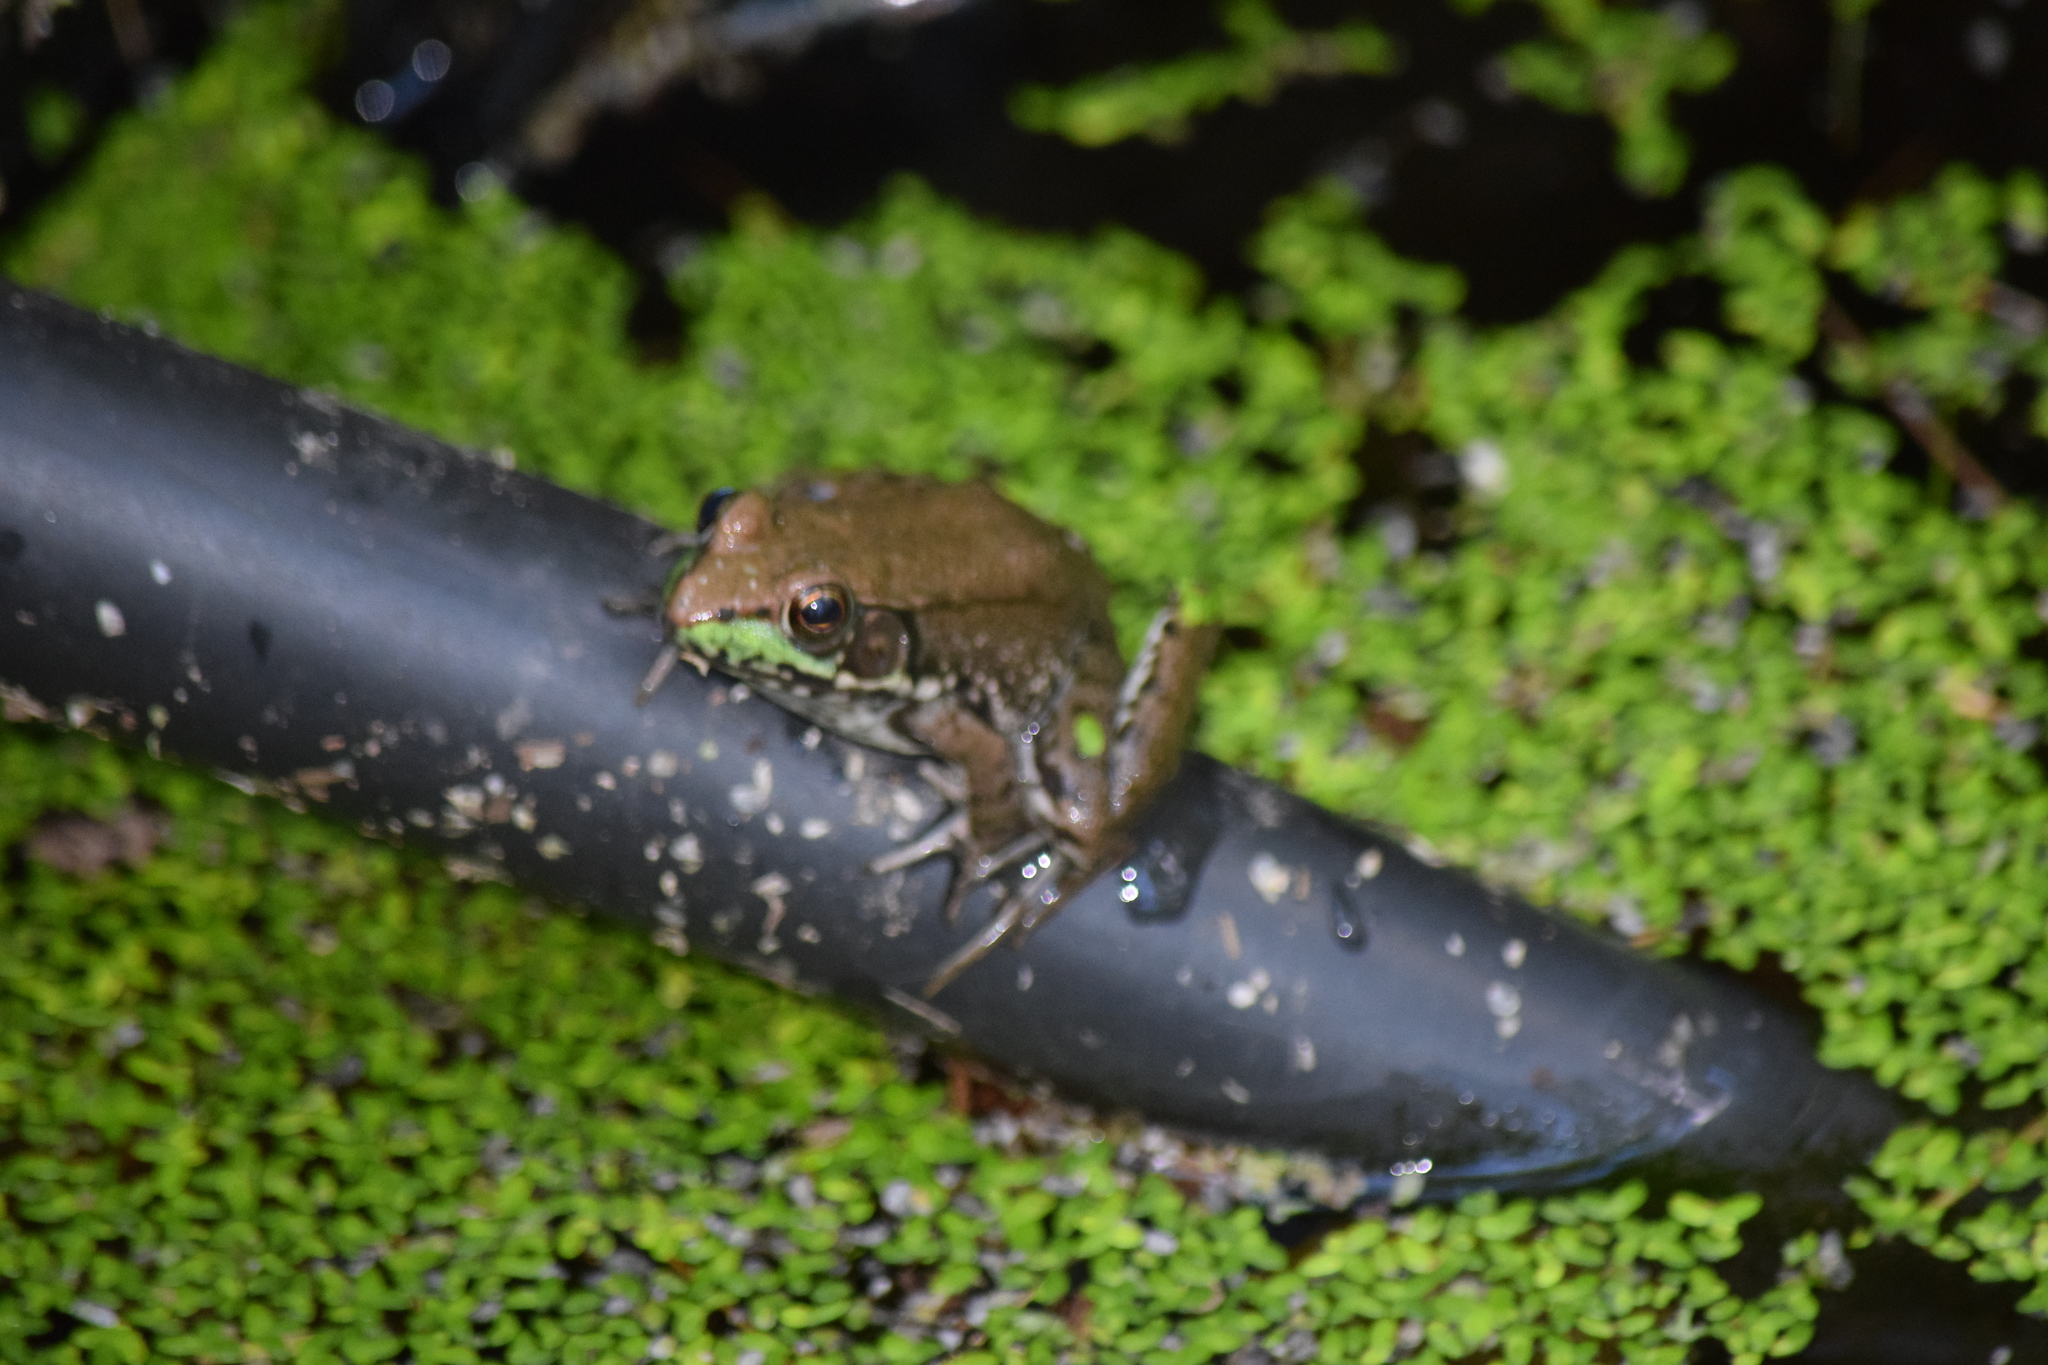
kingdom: Animalia
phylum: Chordata
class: Amphibia
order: Anura
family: Ranidae
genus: Lithobates
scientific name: Lithobates clamitans
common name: Green frog
